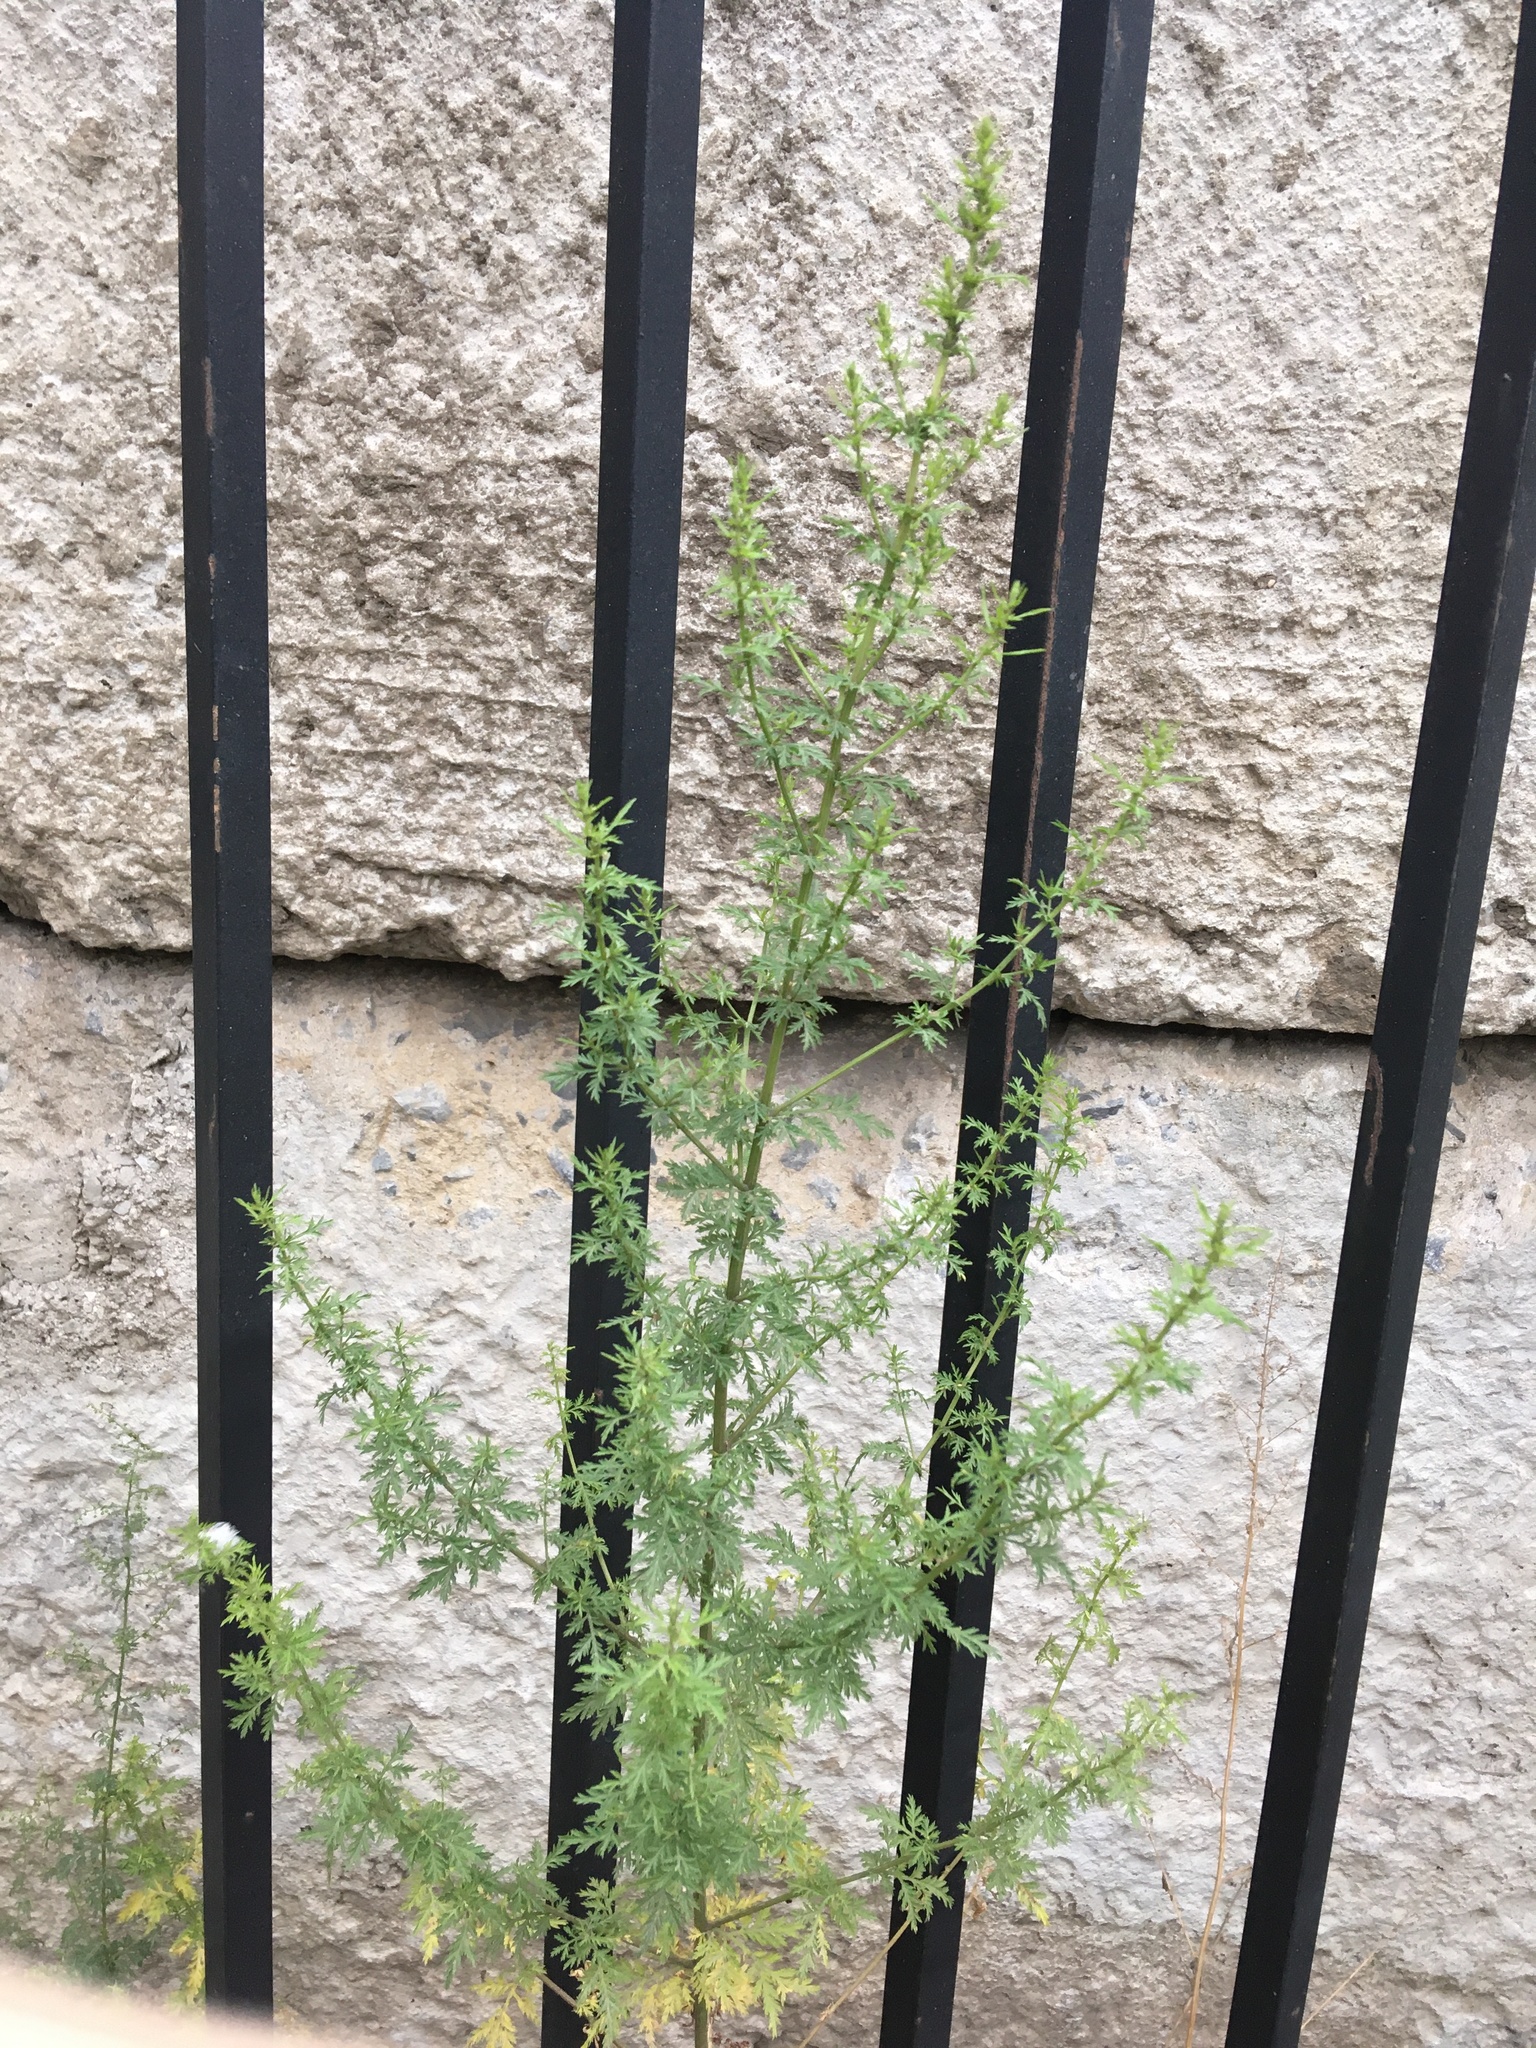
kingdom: Plantae
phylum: Tracheophyta
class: Magnoliopsida
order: Asterales
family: Asteraceae
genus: Artemisia
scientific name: Artemisia annua
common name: Sweet sagewort
